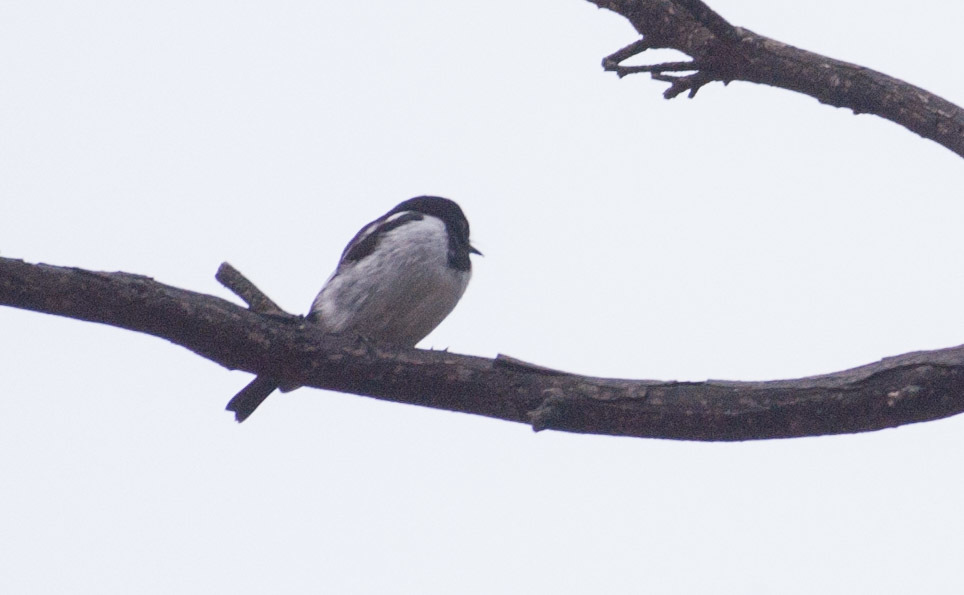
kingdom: Animalia
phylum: Chordata
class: Aves
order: Passeriformes
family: Petroicidae
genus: Melanodryas
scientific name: Melanodryas cucullata
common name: Hooded robin
